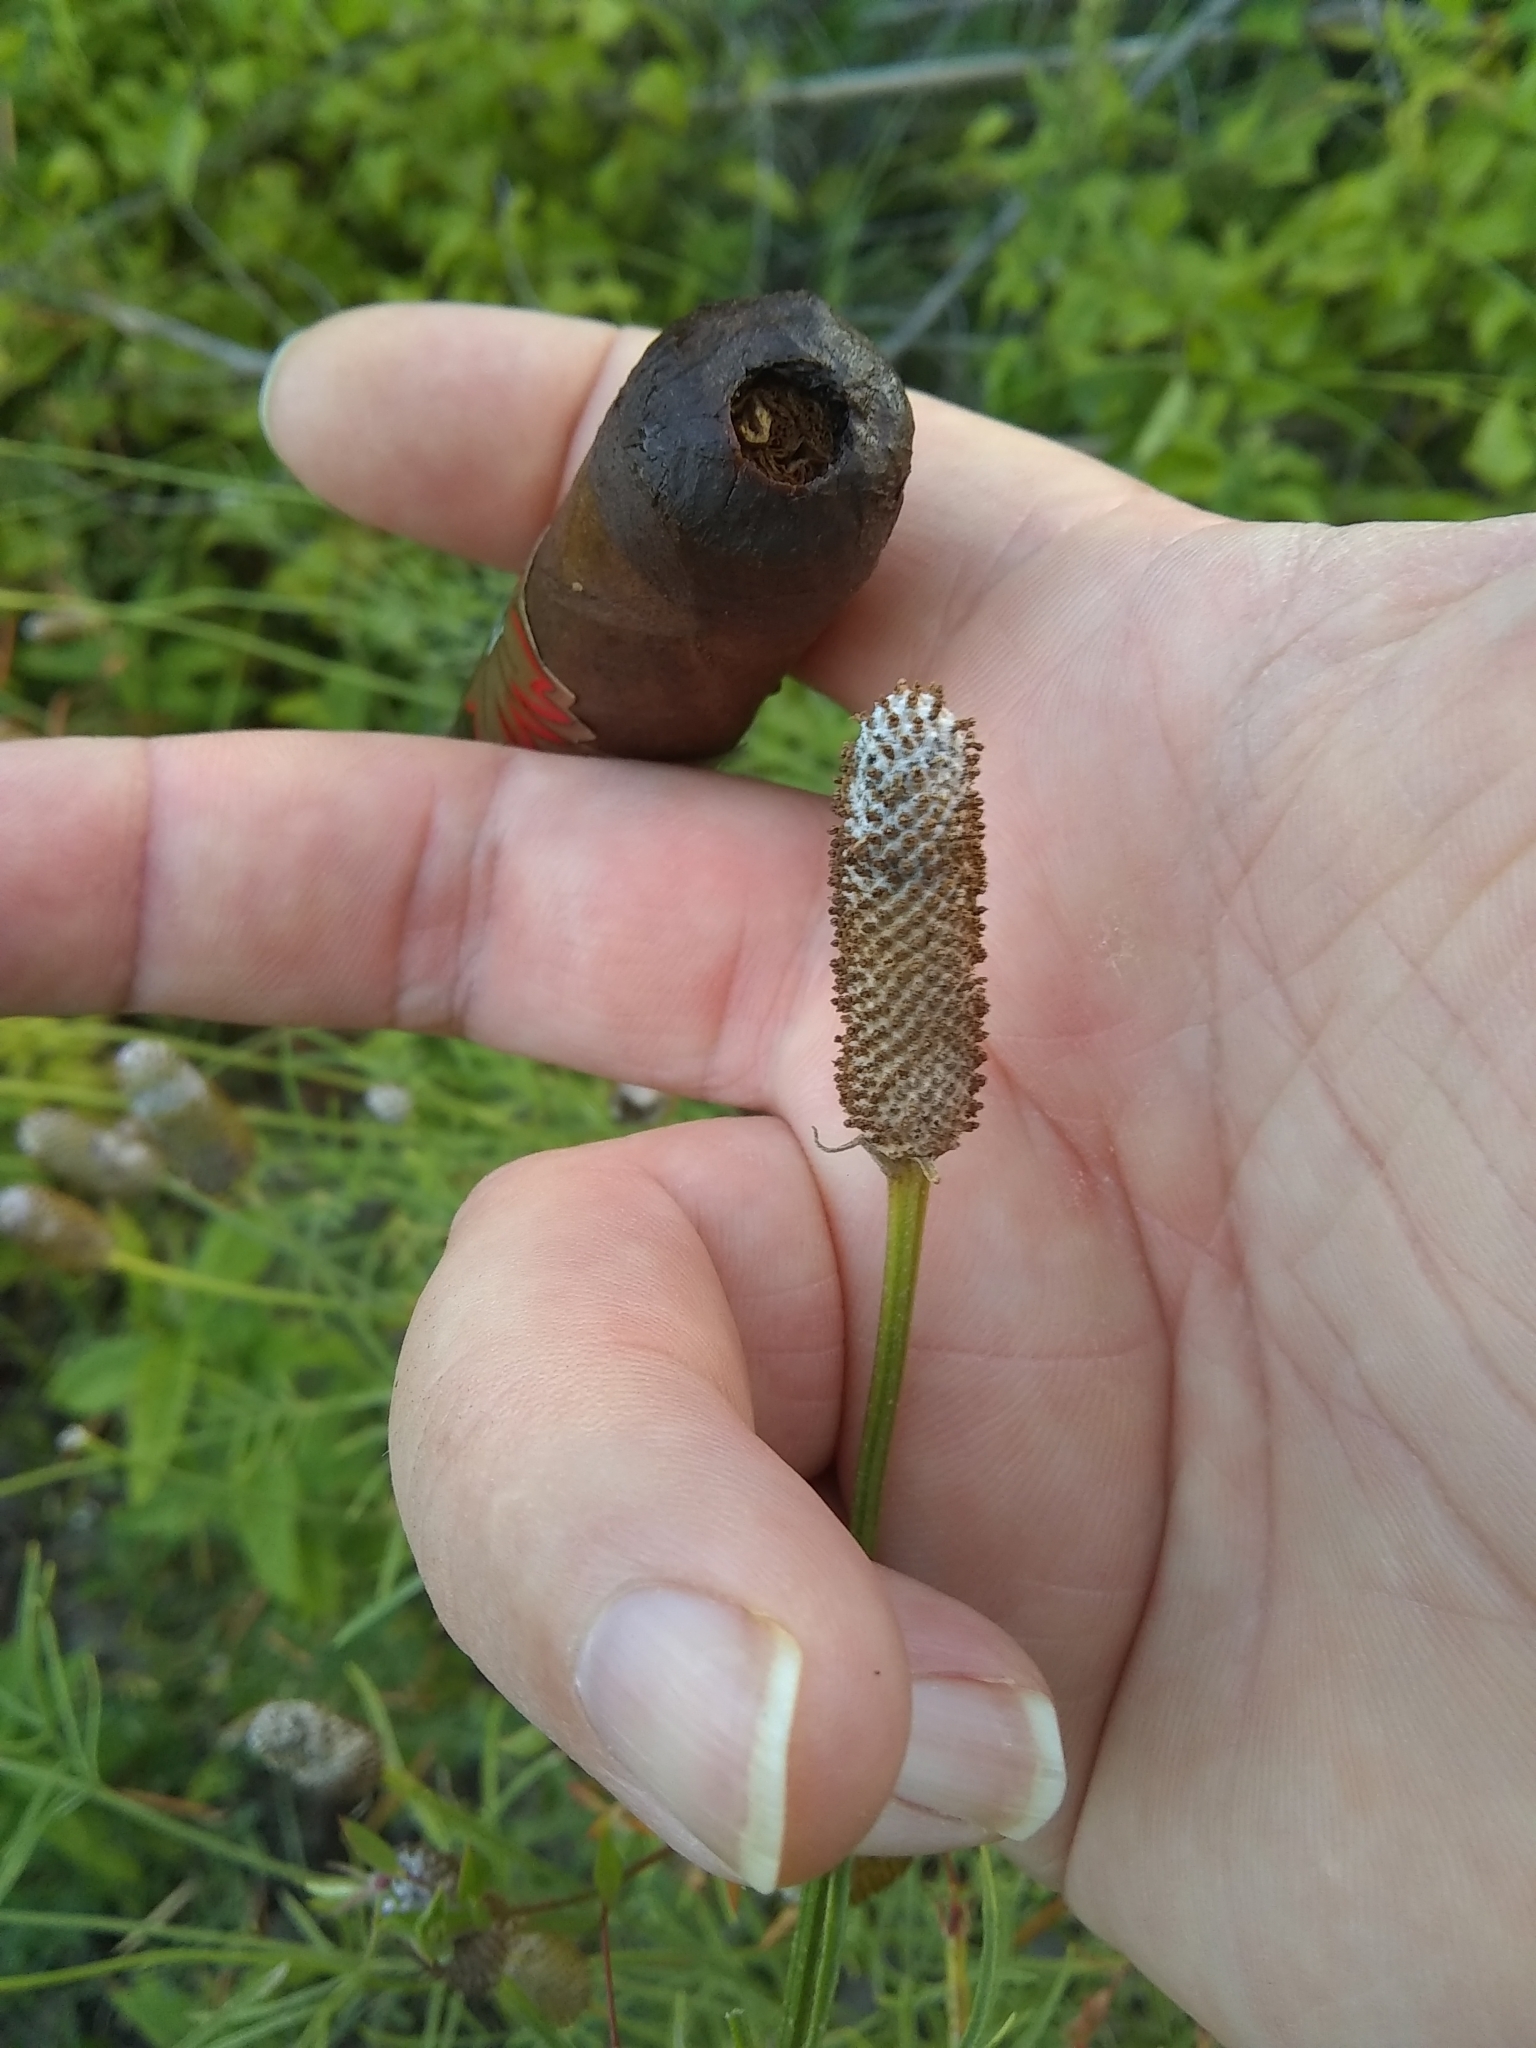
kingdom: Plantae
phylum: Tracheophyta
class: Magnoliopsida
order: Asterales
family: Asteraceae
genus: Ratibida
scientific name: Ratibida columnifera
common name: Prairie coneflower
